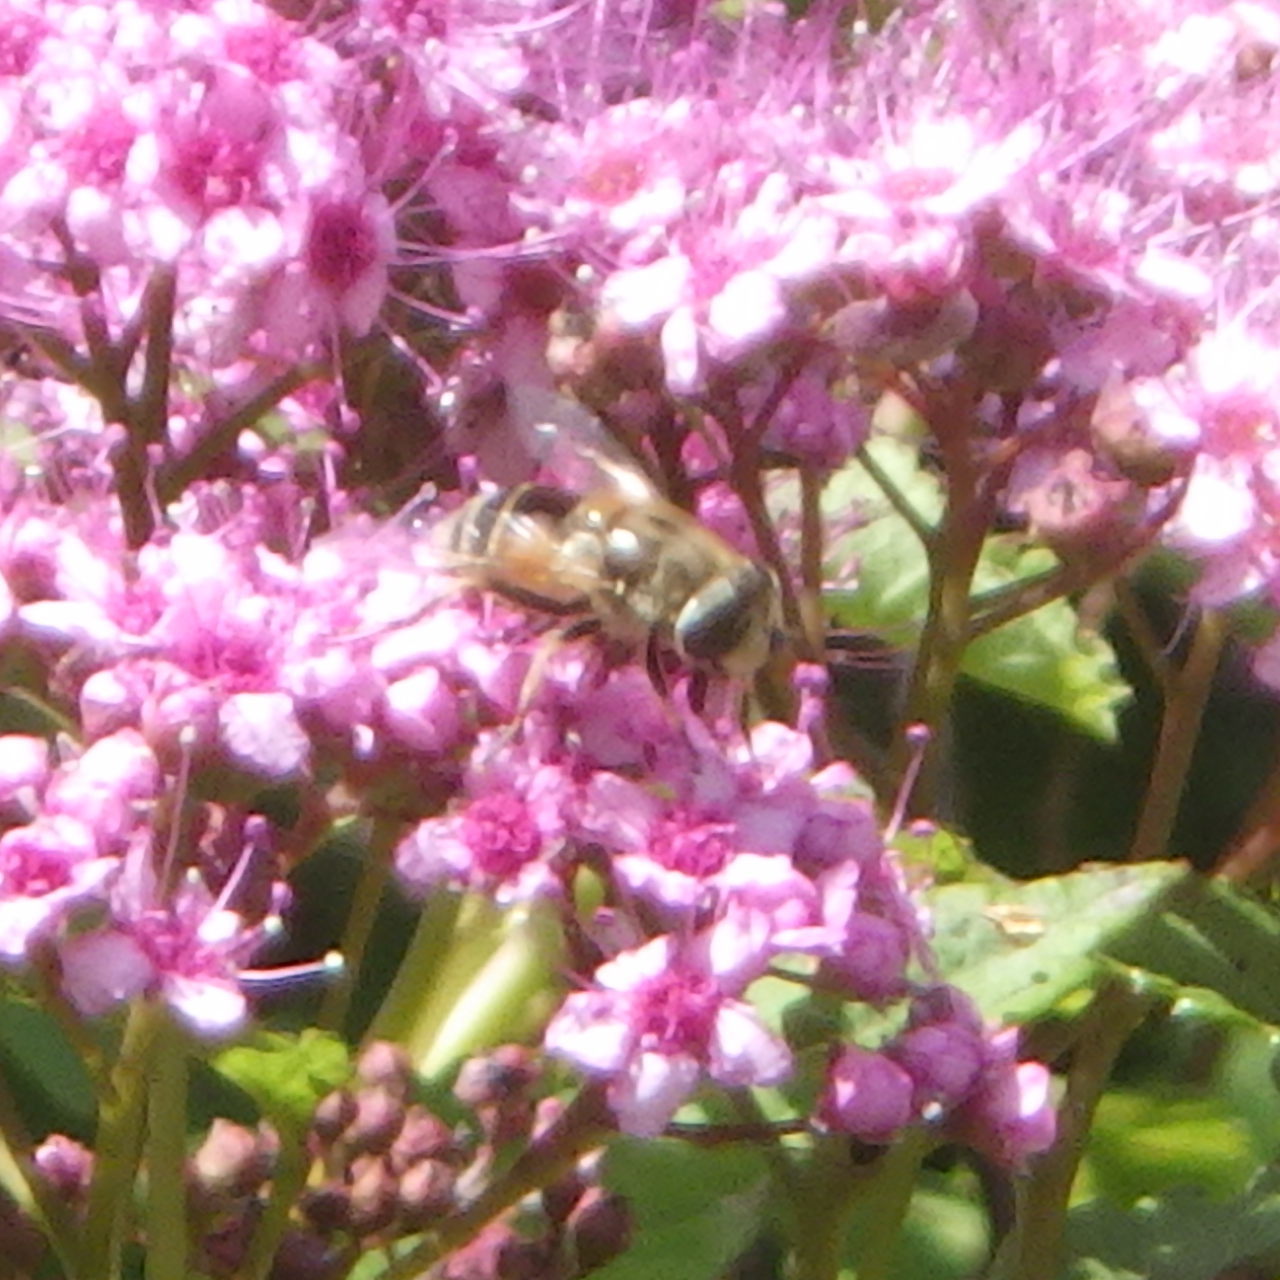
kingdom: Animalia
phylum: Arthropoda
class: Insecta
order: Diptera
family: Syrphidae
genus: Eristalis
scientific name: Eristalis arbustorum
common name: Hover fly
